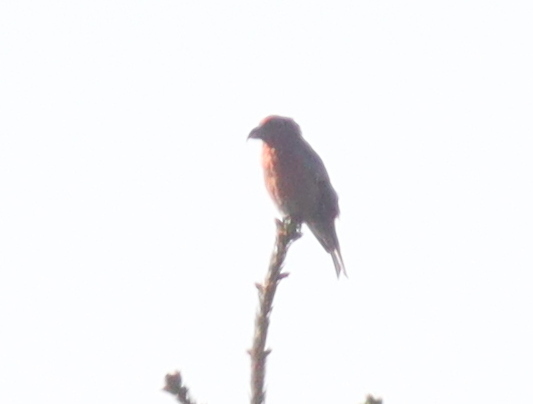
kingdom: Animalia
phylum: Chordata
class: Aves
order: Passeriformes
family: Fringillidae
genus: Loxia
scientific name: Loxia curvirostra
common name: Red crossbill
